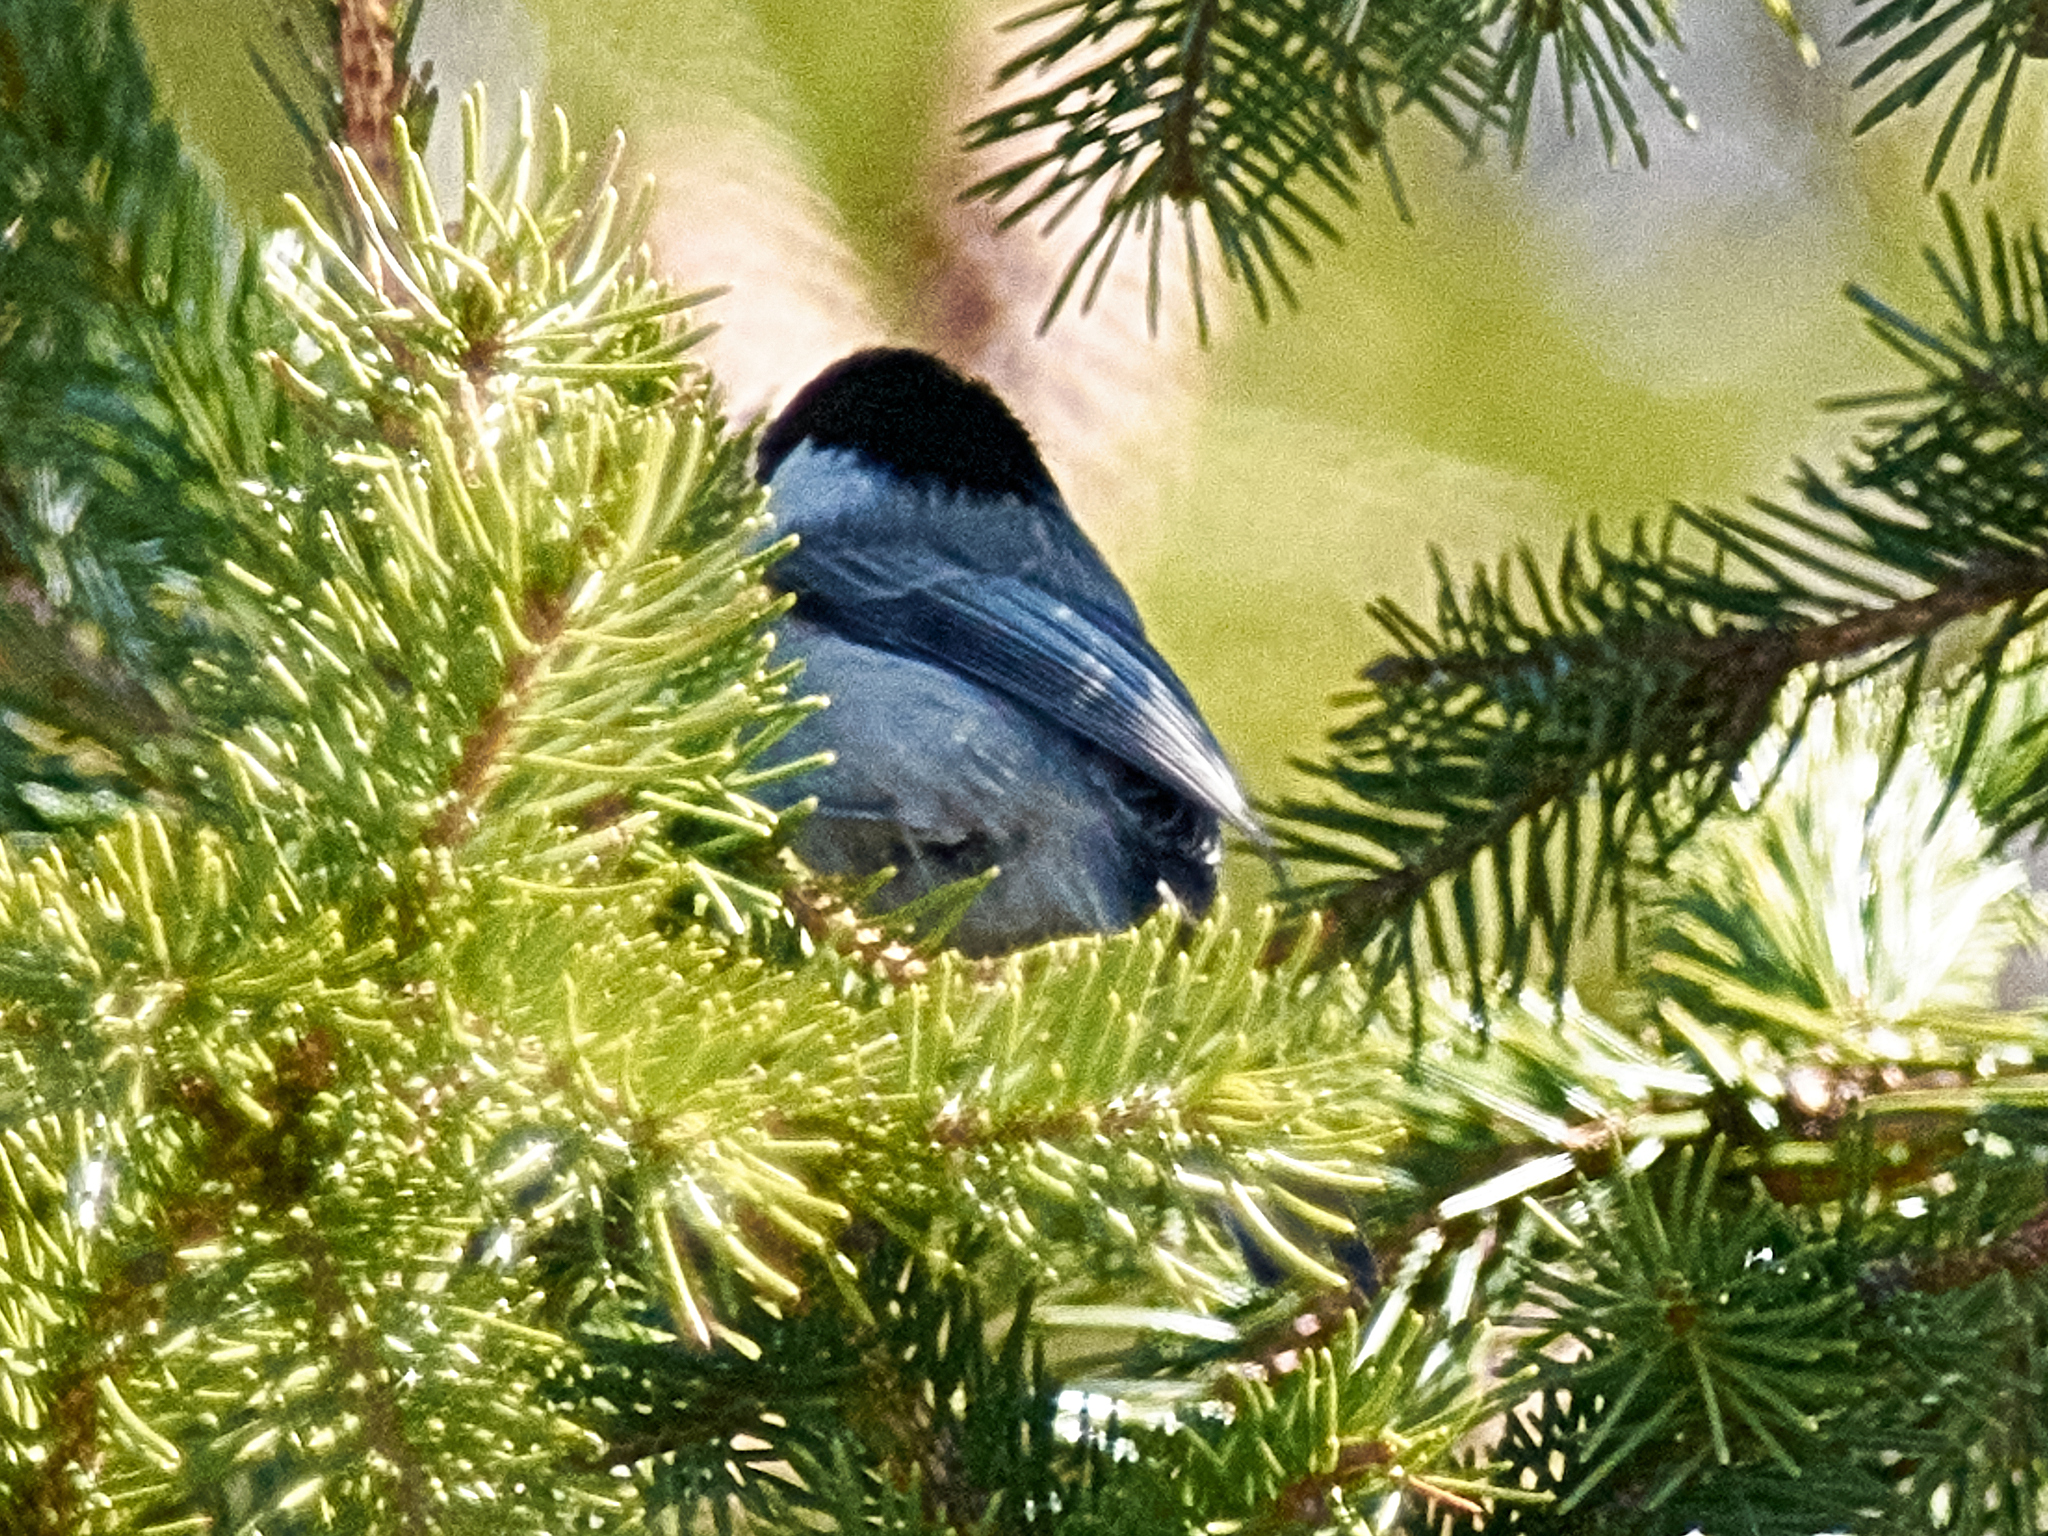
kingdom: Animalia
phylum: Chordata
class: Aves
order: Passeriformes
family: Paridae
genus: Poecile
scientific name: Poecile montanus
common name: Willow tit
